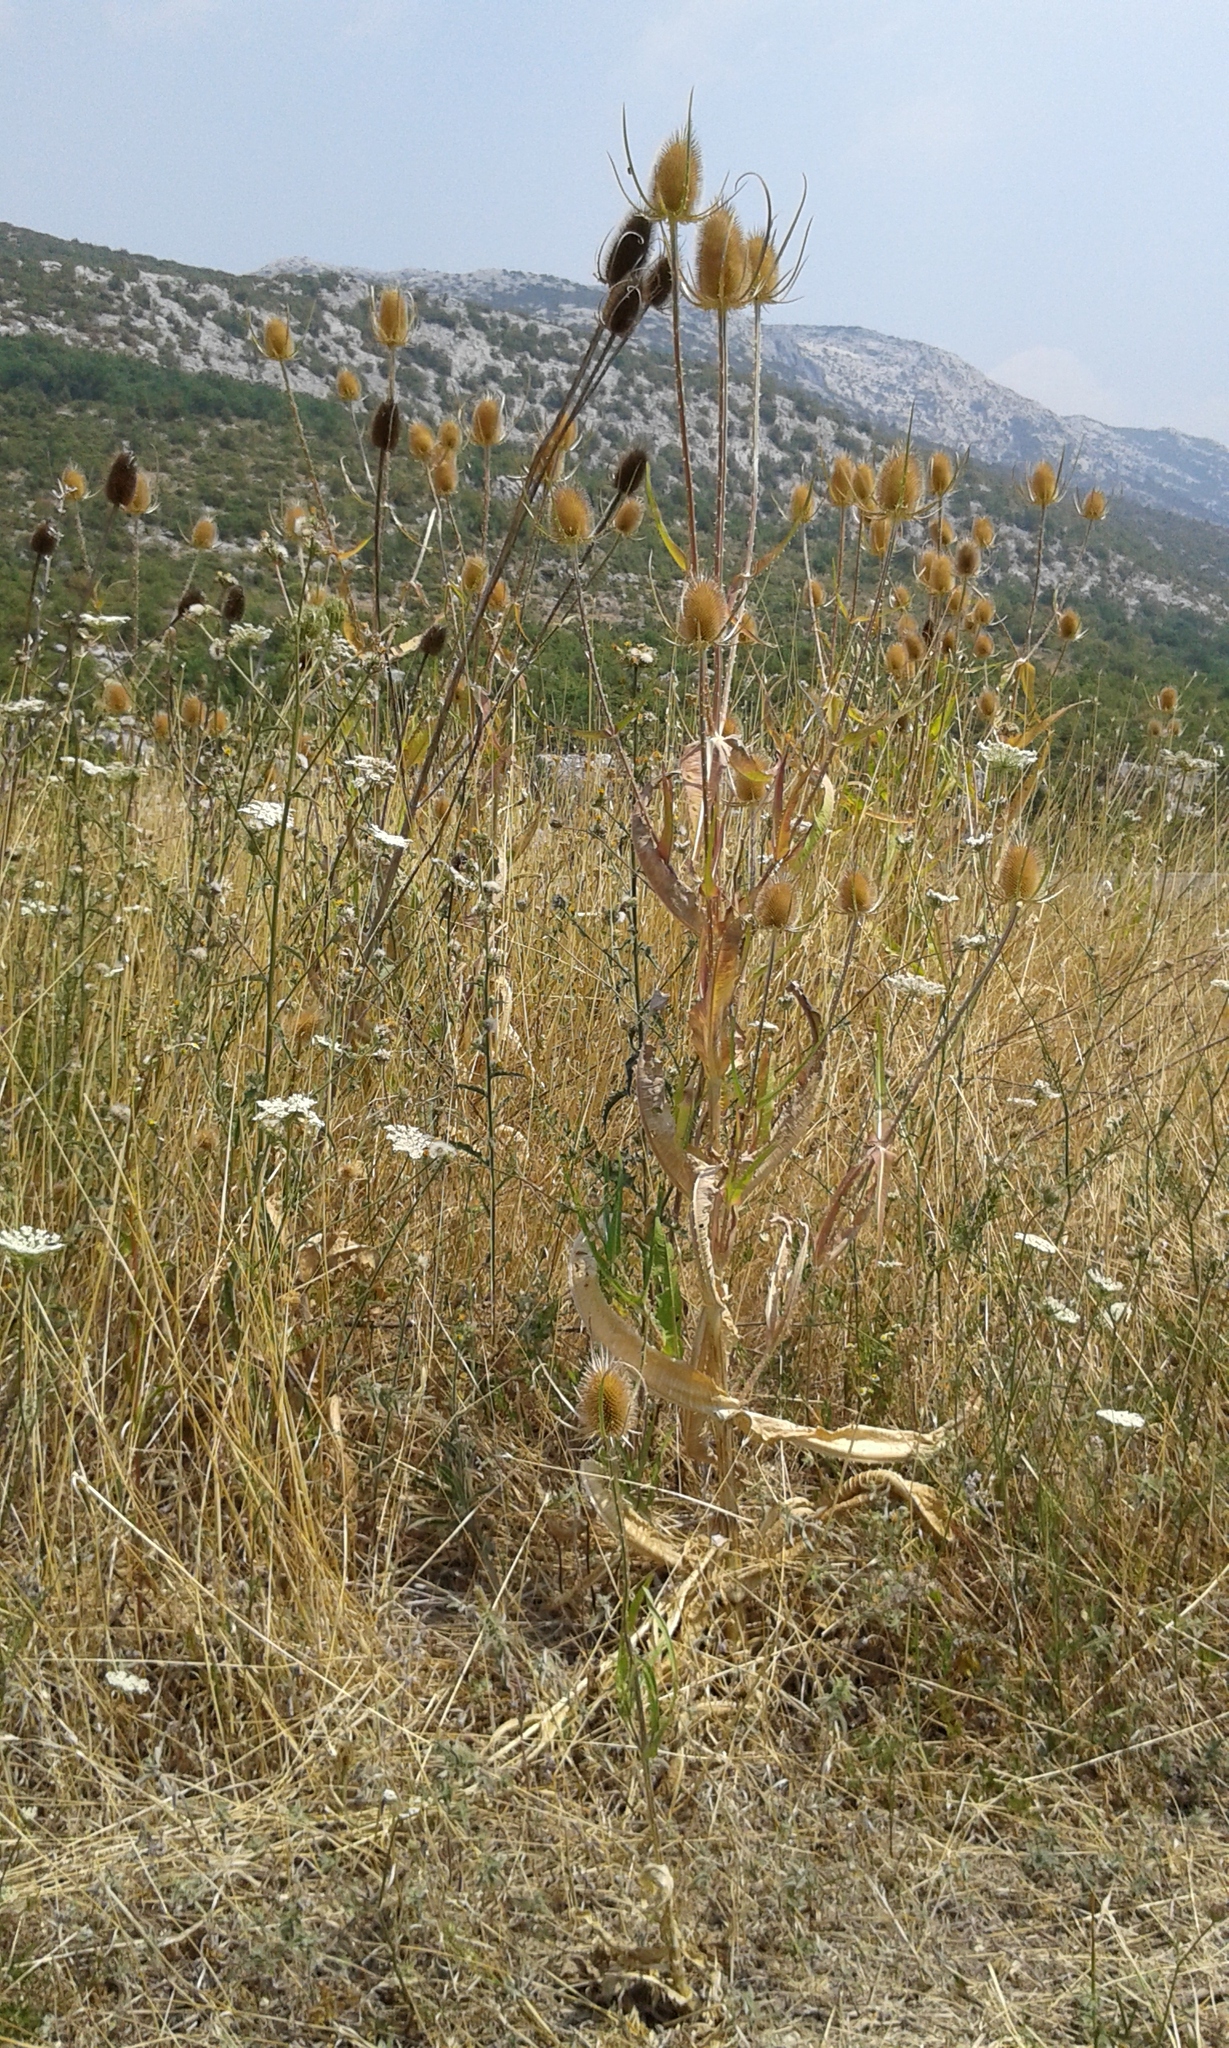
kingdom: Plantae
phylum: Tracheophyta
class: Magnoliopsida
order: Dipsacales
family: Caprifoliaceae
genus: Dipsacus
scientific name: Dipsacus fullonum
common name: Teasel
